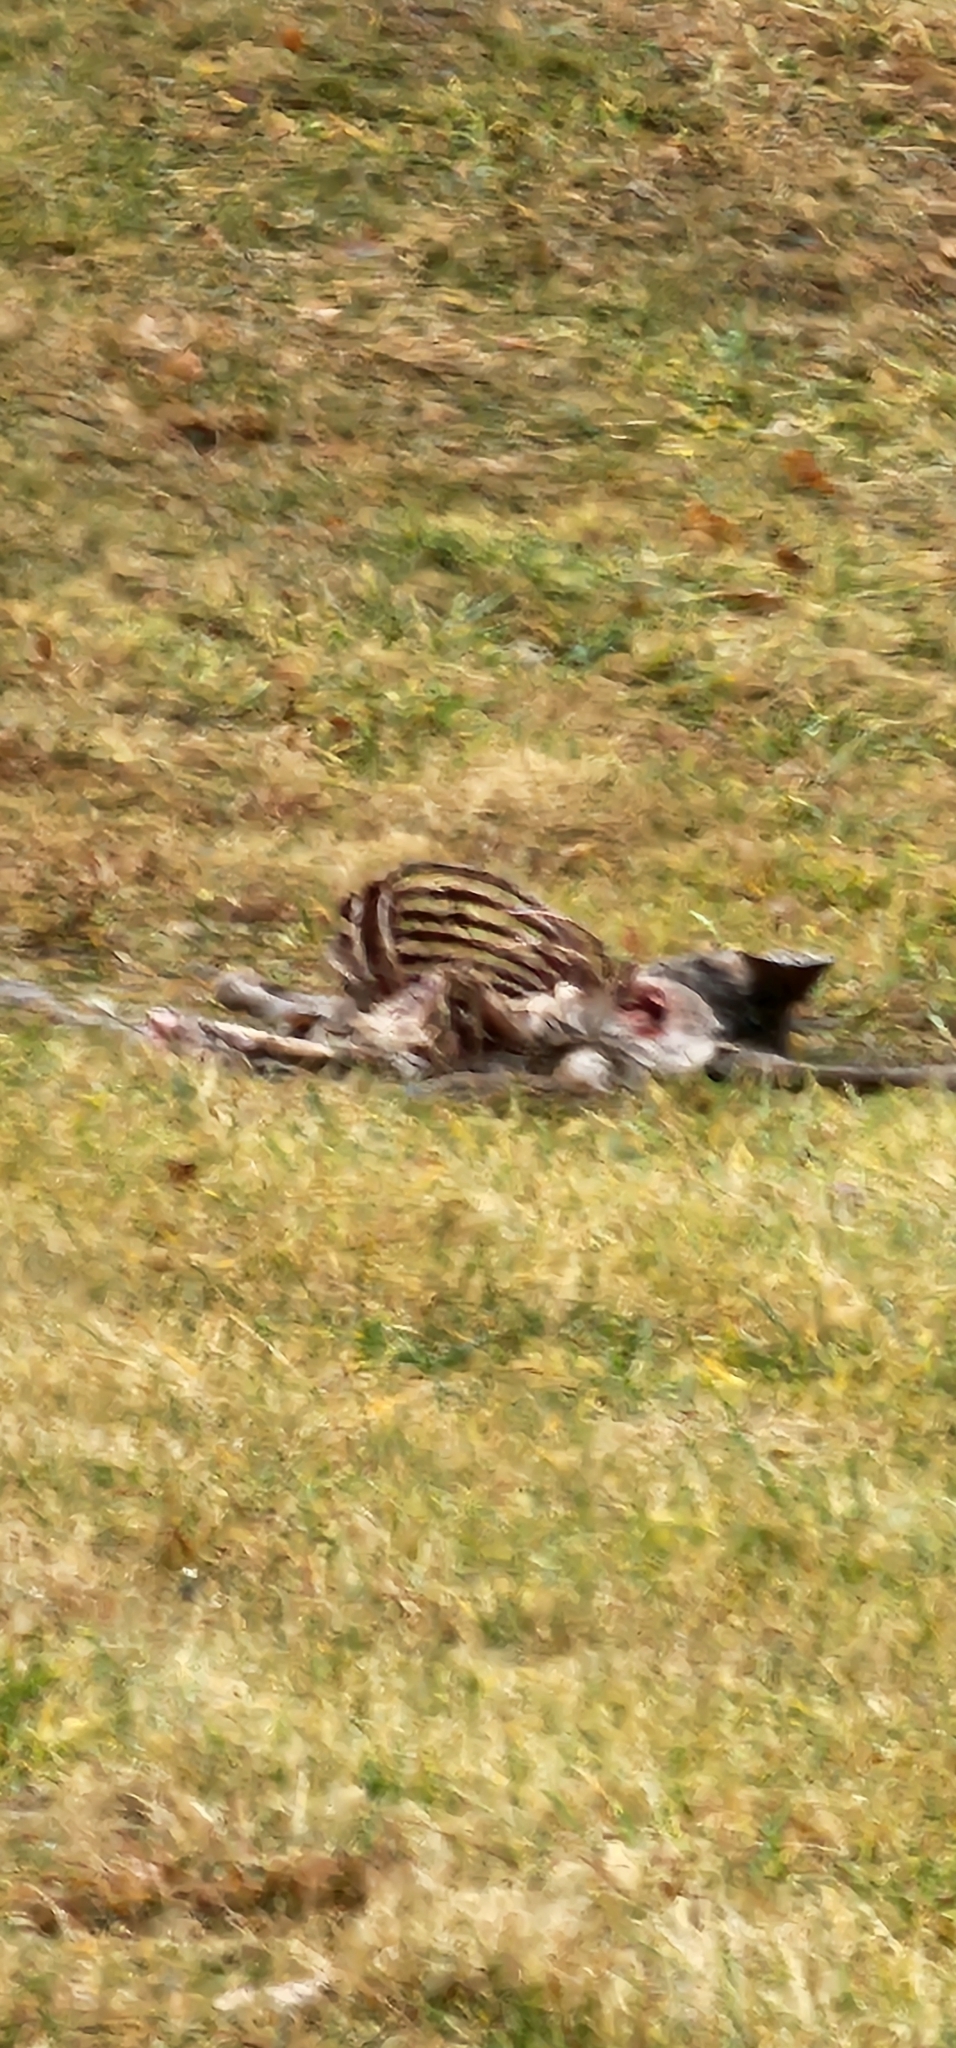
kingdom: Animalia
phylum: Chordata
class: Mammalia
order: Artiodactyla
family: Cervidae
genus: Odocoileus
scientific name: Odocoileus virginianus
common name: White-tailed deer
